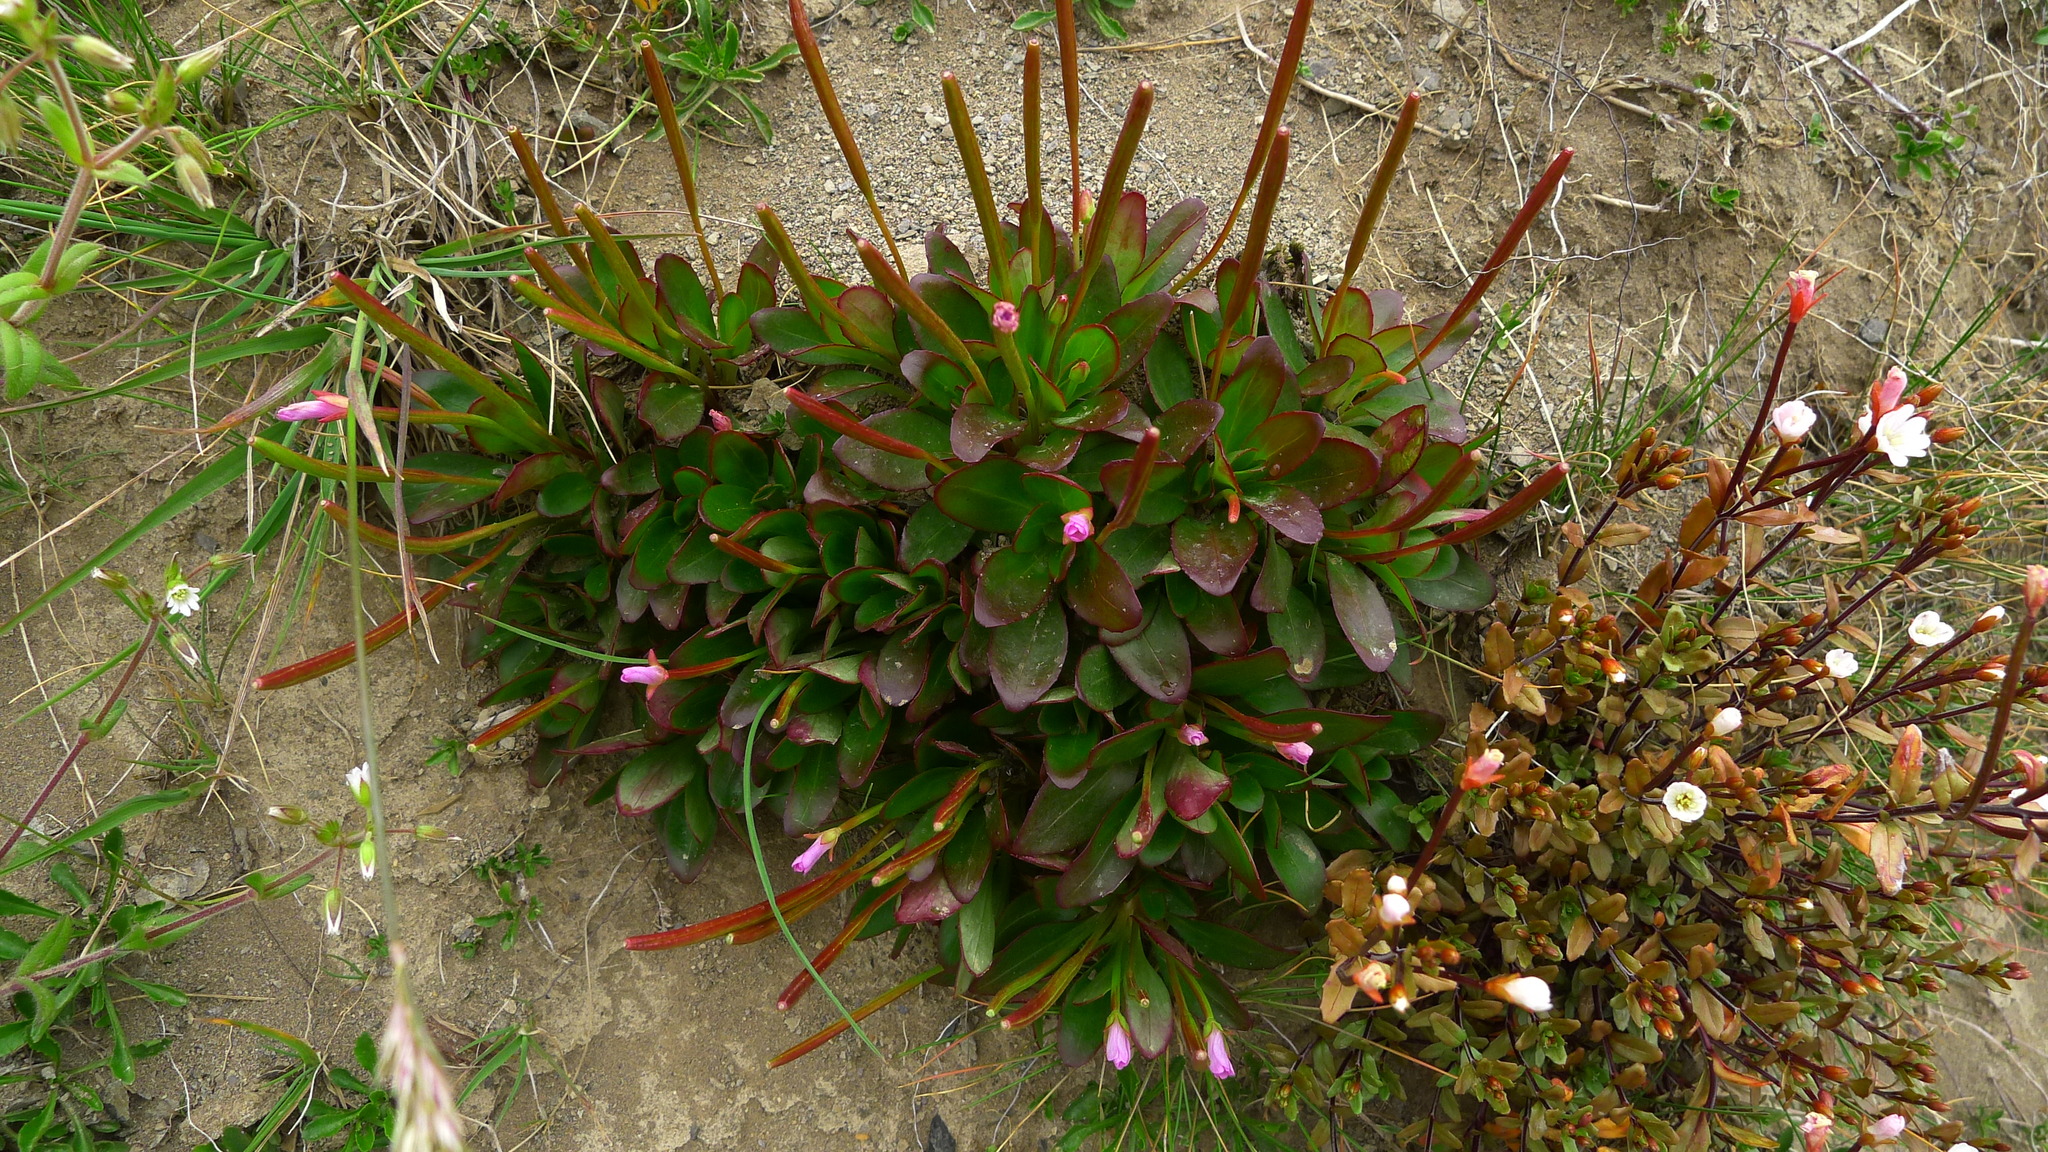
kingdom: Plantae
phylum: Tracheophyta
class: Magnoliopsida
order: Myrtales
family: Onagraceae
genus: Epilobium
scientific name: Epilobium crassum
